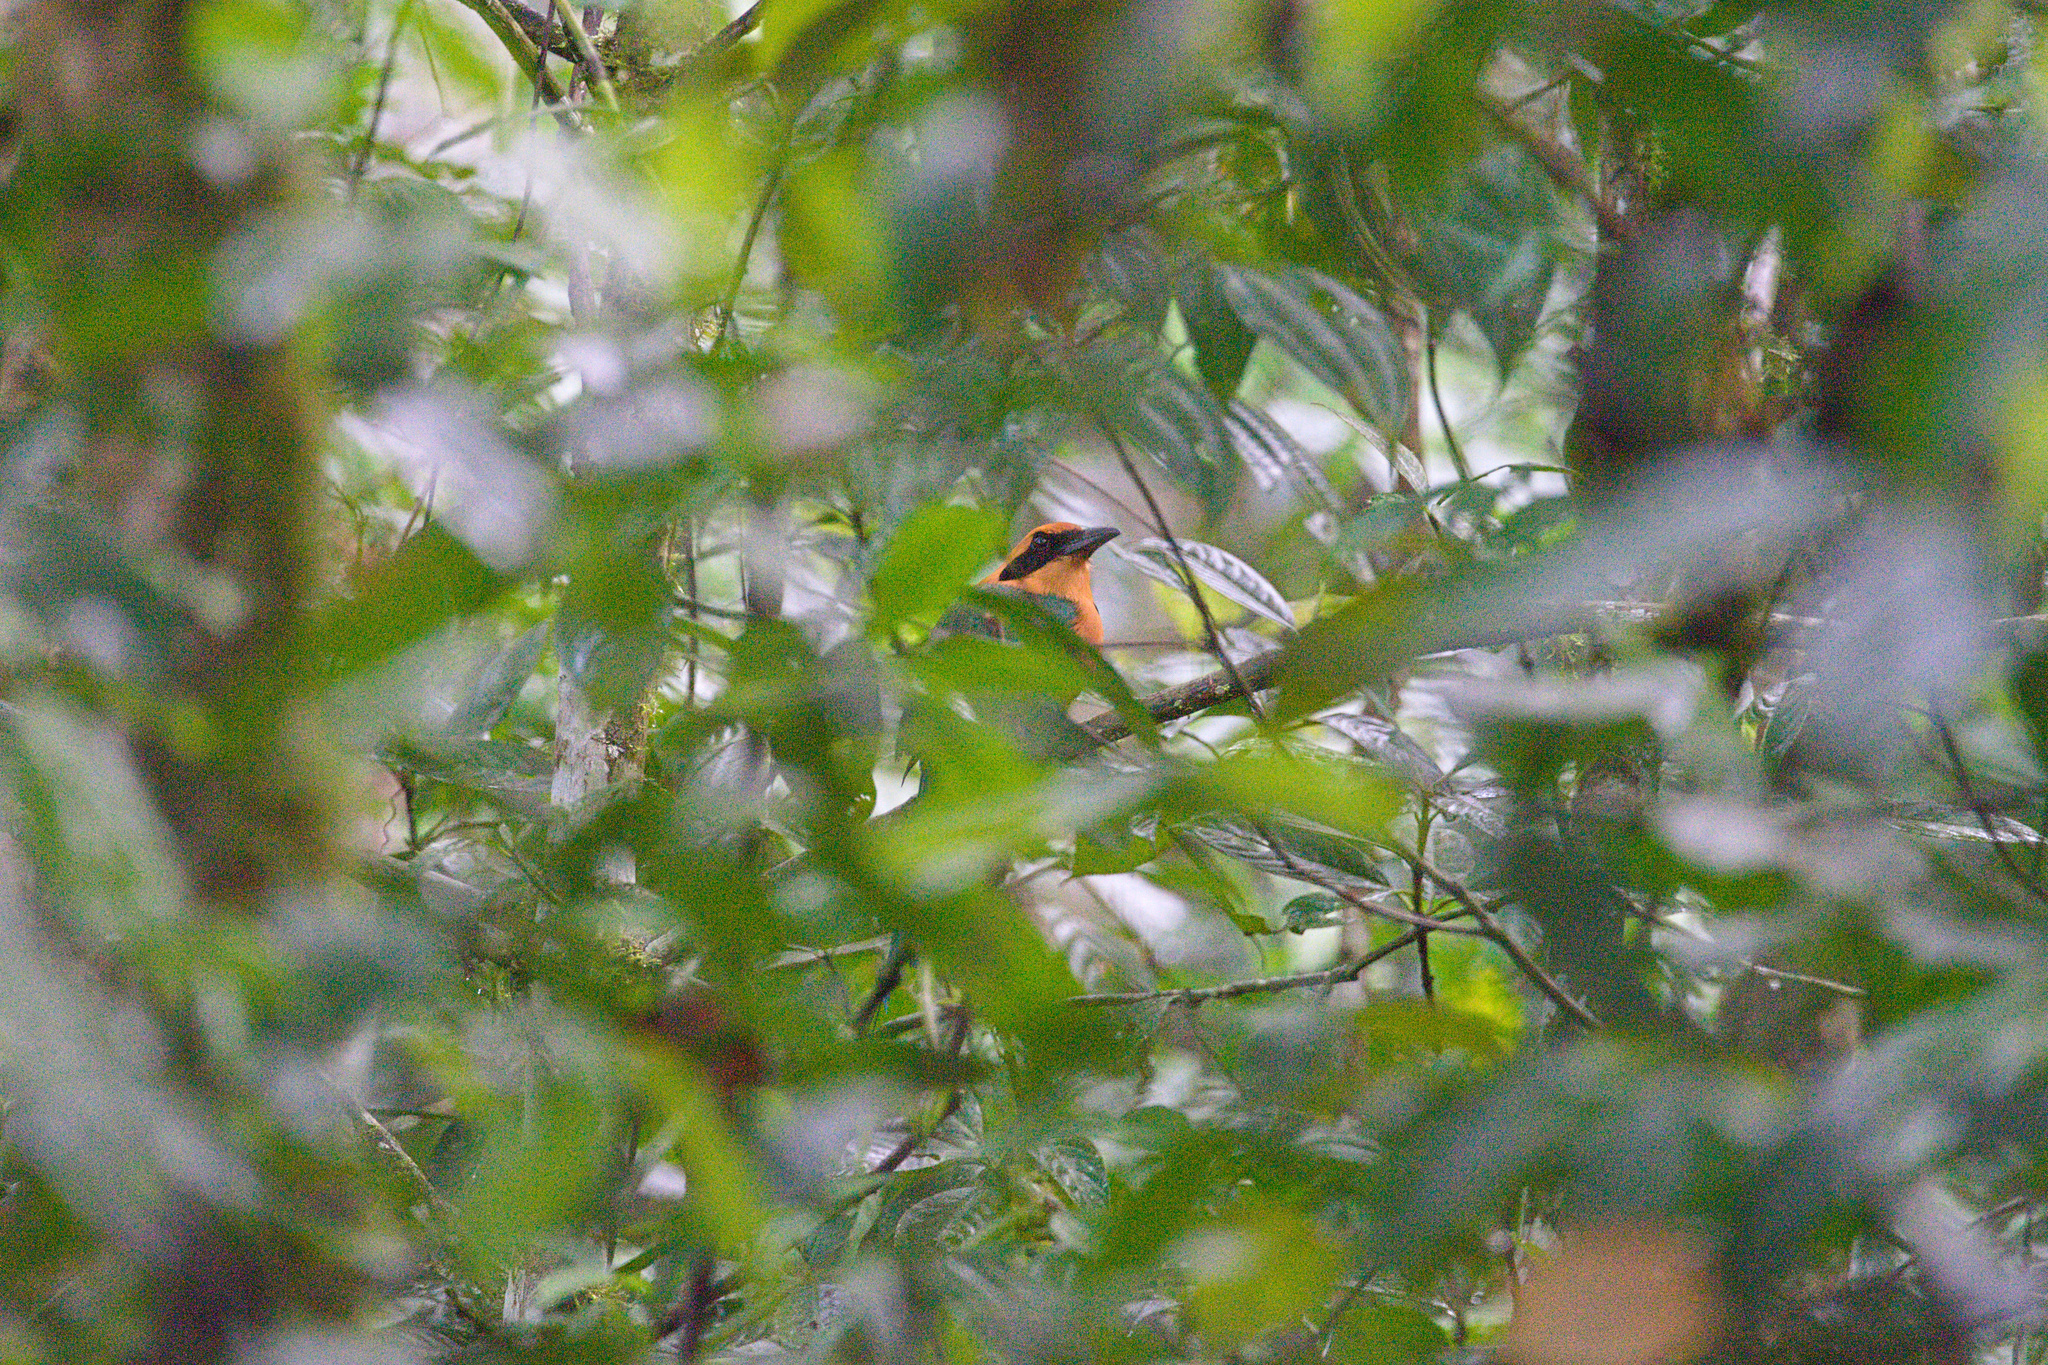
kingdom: Animalia
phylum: Chordata
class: Aves
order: Coraciiformes
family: Momotidae
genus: Baryphthengus
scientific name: Baryphthengus martii
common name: Rufous motmot
